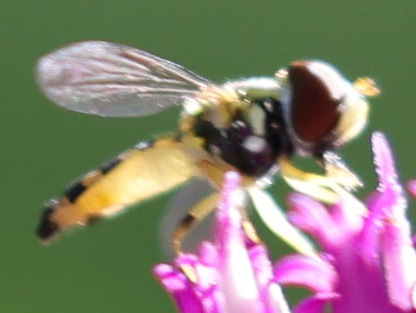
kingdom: Animalia
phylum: Arthropoda
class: Insecta
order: Diptera
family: Syrphidae
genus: Toxomerus
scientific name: Toxomerus geminatus
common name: Eastern calligrapher
